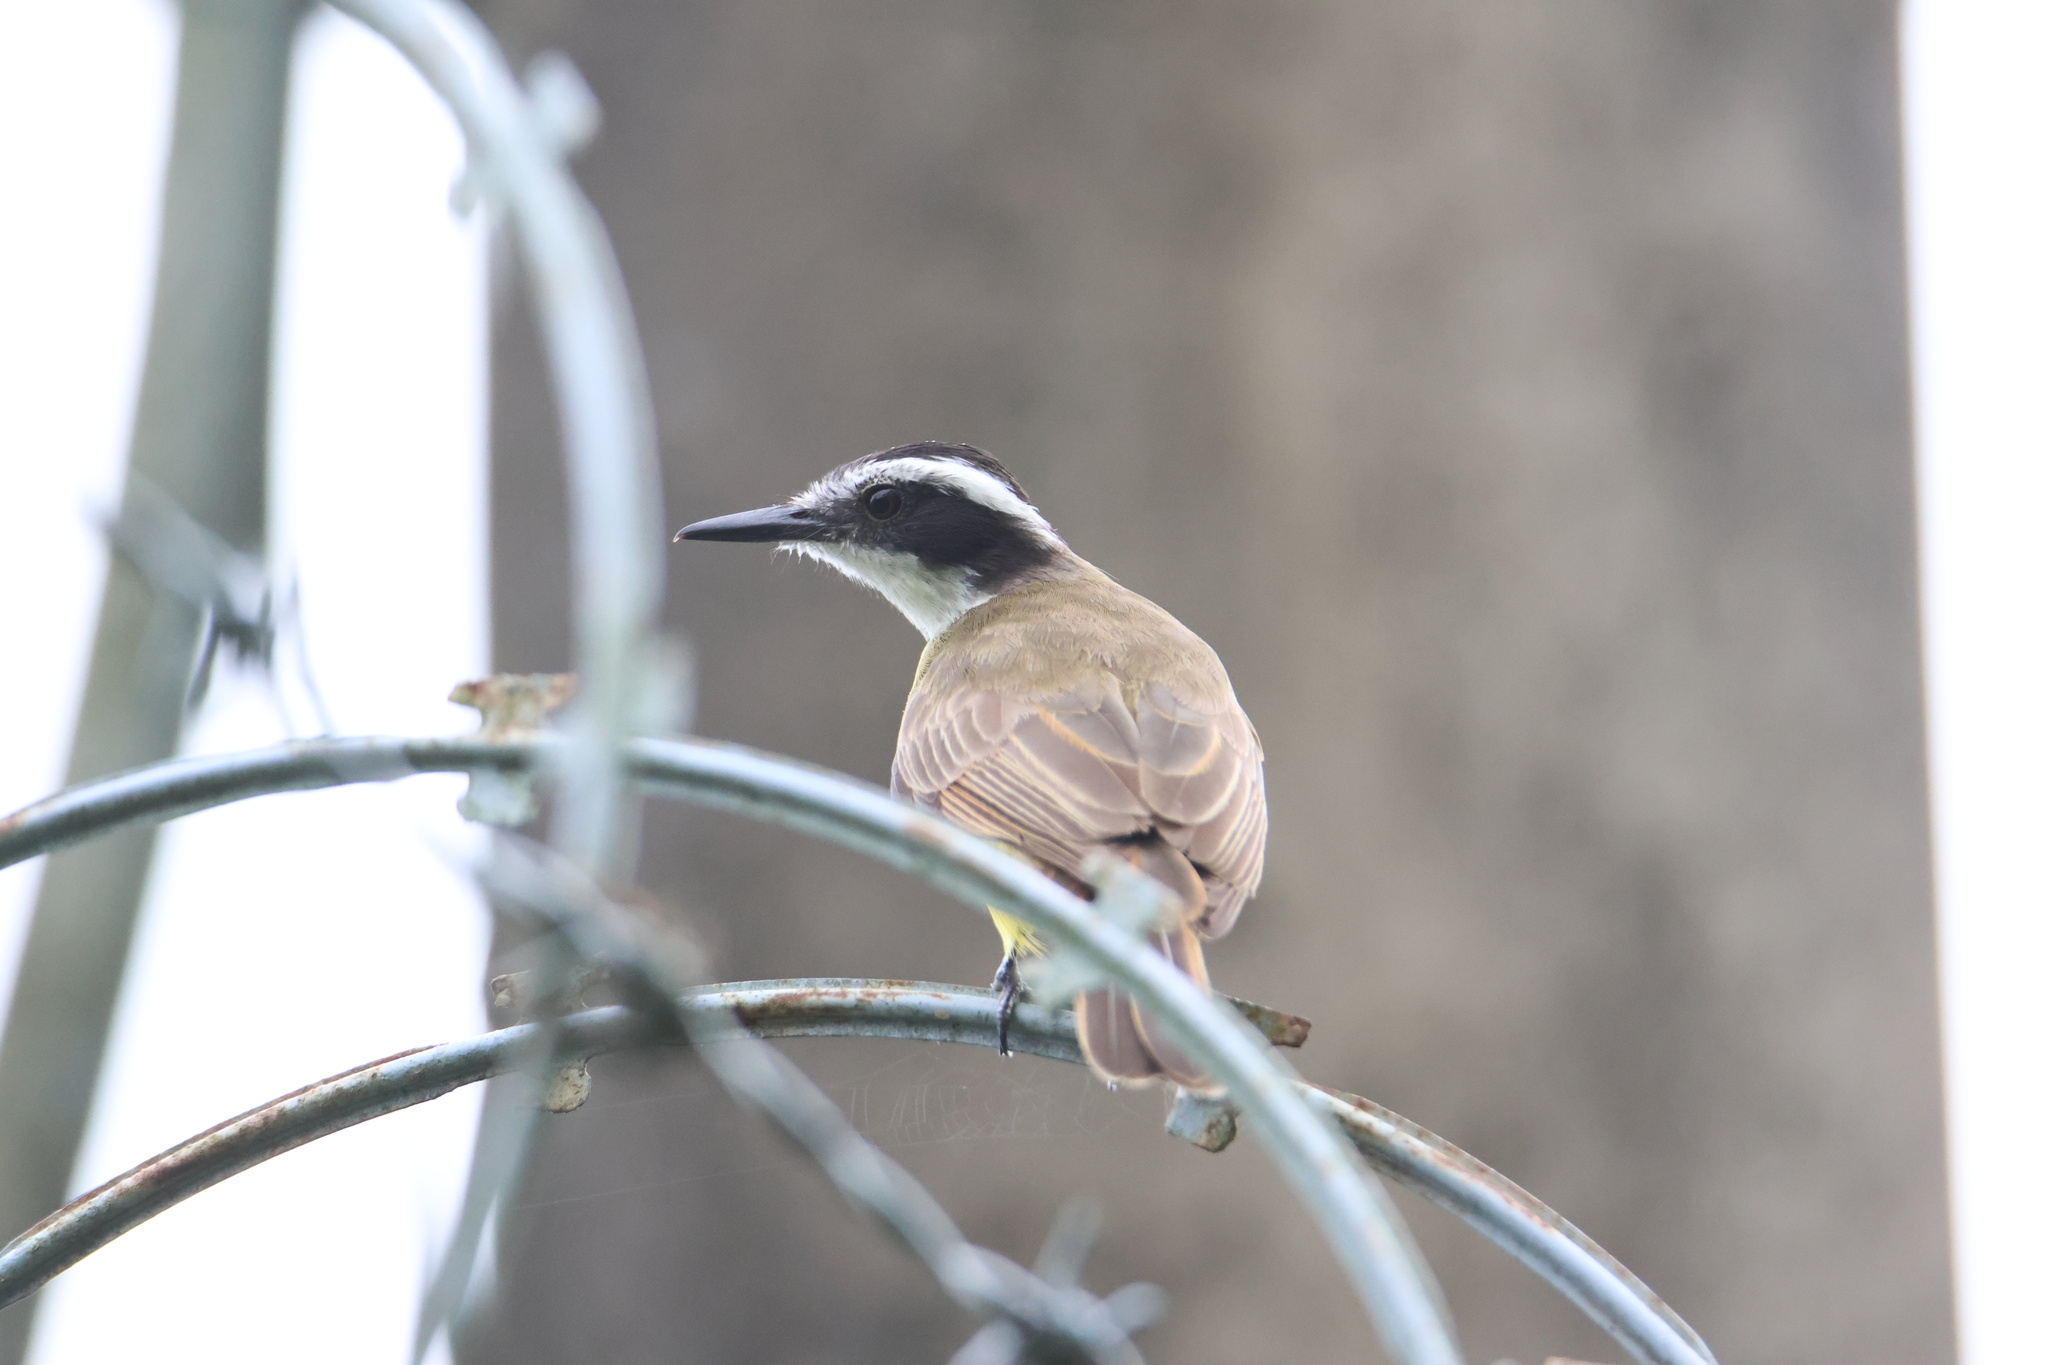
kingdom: Animalia
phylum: Chordata
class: Aves
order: Passeriformes
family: Tyrannidae
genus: Pitangus
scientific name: Pitangus lictor
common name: Lesser kiskadee
